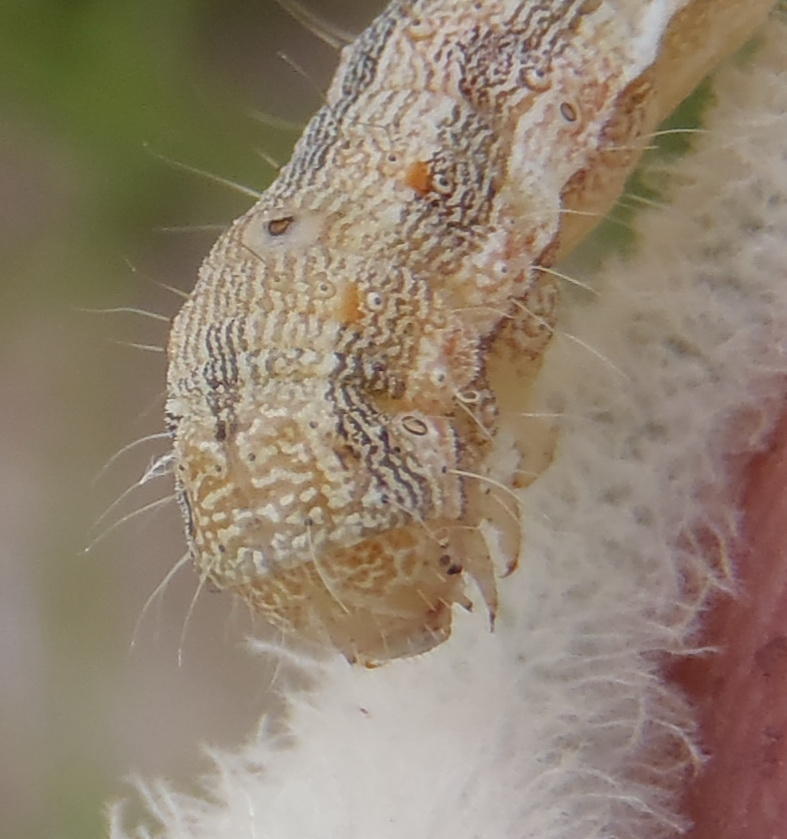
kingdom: Animalia
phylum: Arthropoda
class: Insecta
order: Lepidoptera
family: Noctuidae
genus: Helicoverpa
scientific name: Helicoverpa armigera
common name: Cotton bollworm
